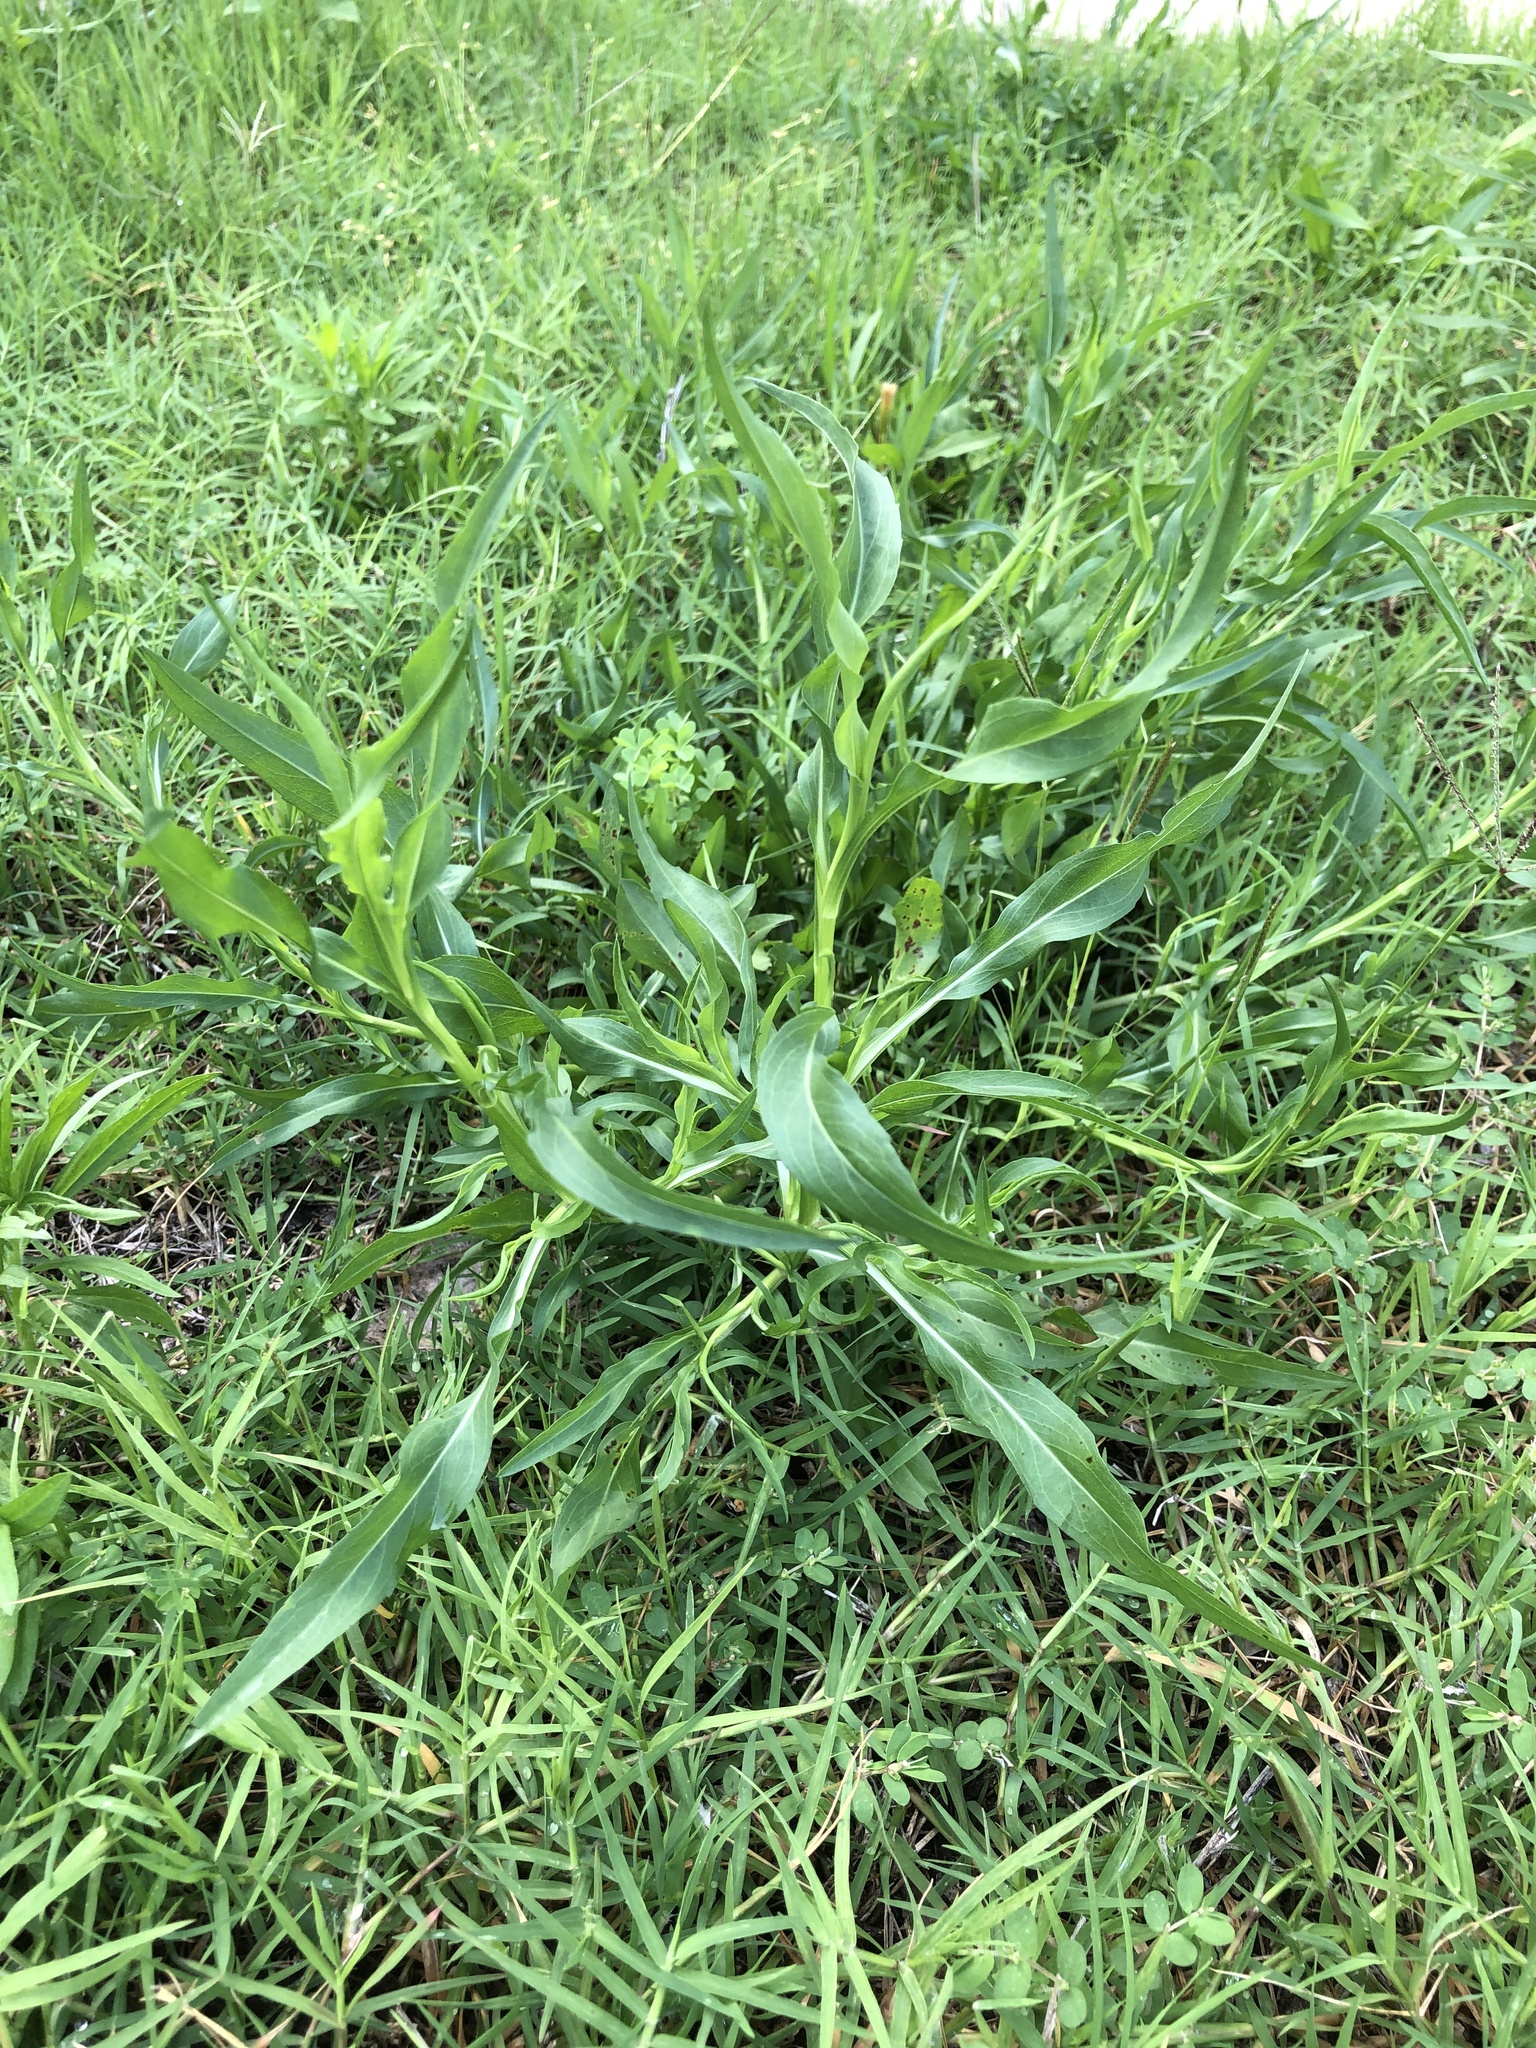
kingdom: Plantae
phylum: Tracheophyta
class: Magnoliopsida
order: Caryophyllales
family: Polygonaceae
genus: Rumex
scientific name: Rumex altissimus
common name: Smooth dock
